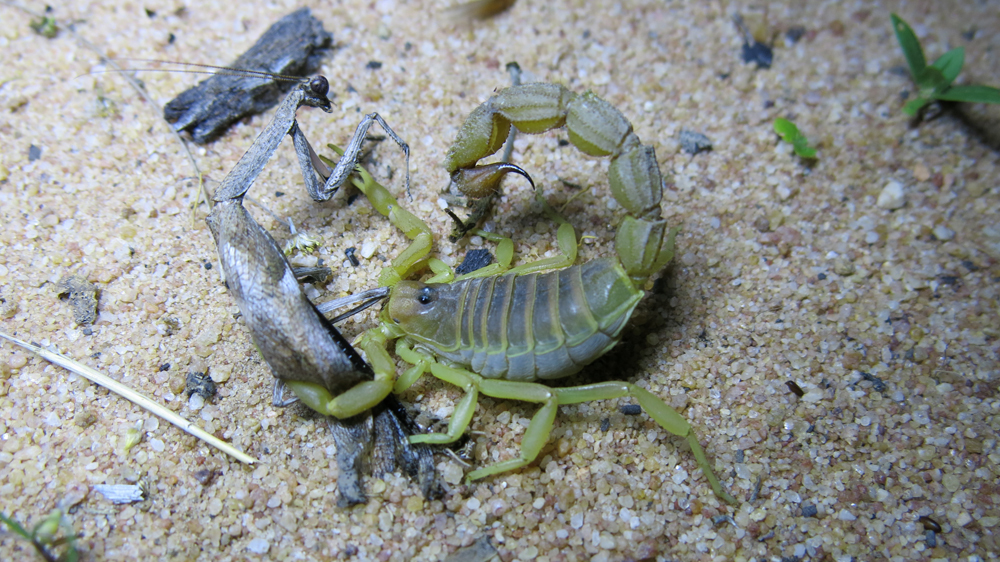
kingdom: Animalia
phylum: Arthropoda
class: Arachnida
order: Scorpiones
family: Buthidae
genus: Parabuthus
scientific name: Parabuthus mossambicensis
